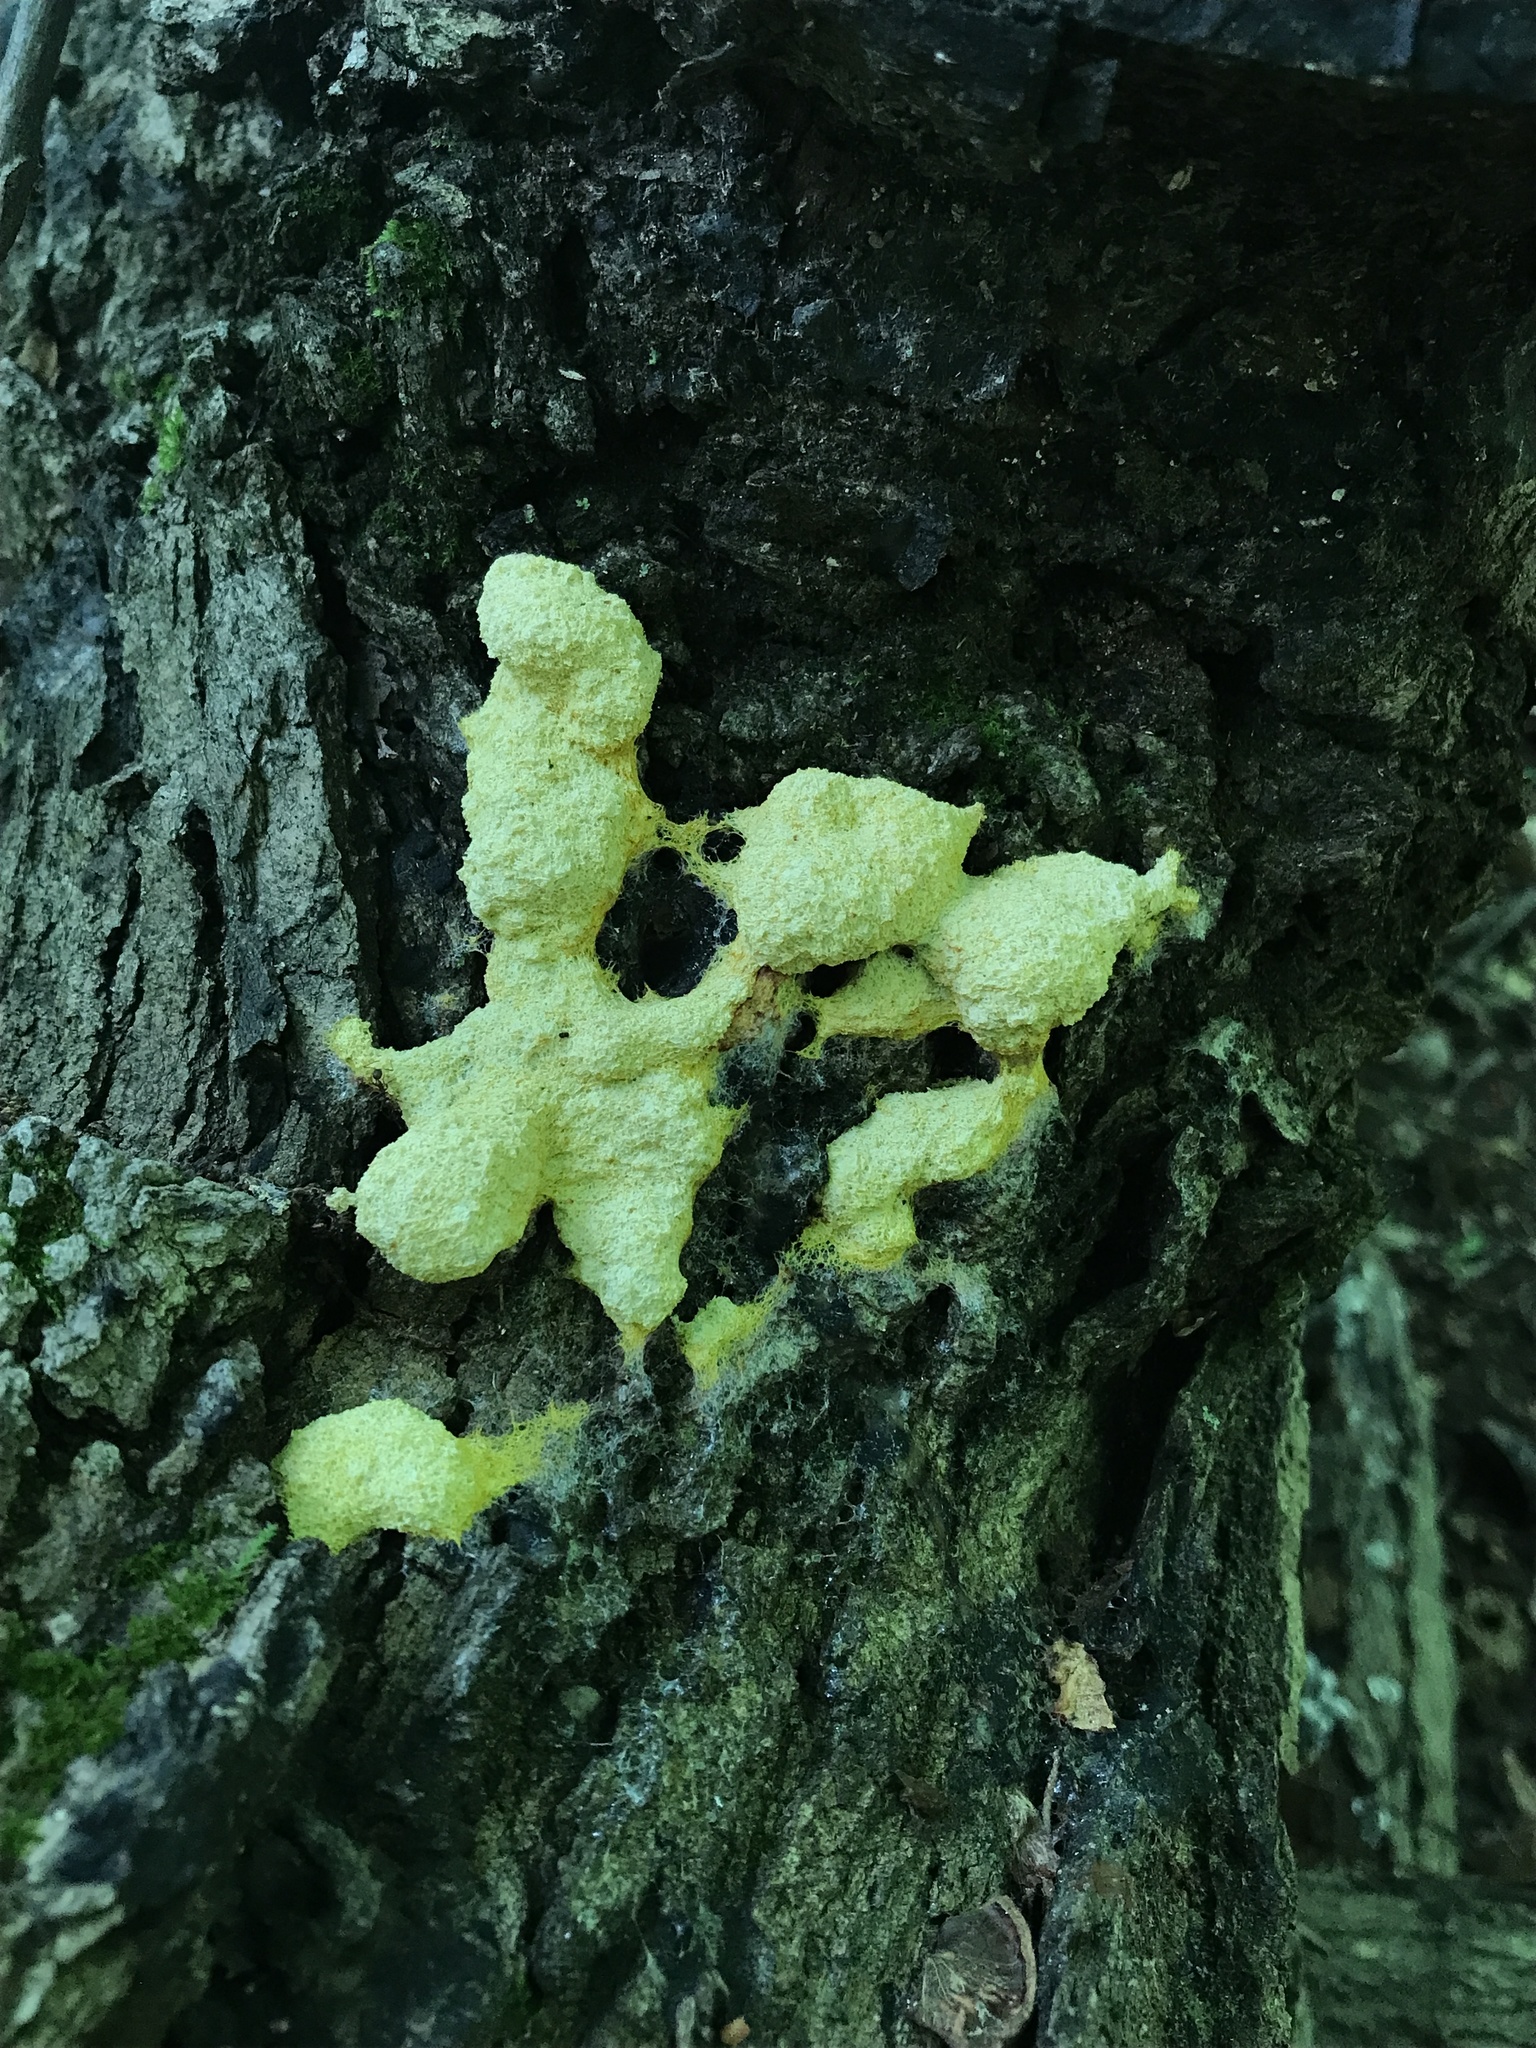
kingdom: Protozoa
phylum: Mycetozoa
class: Myxomycetes
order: Physarales
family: Physaraceae
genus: Fuligo
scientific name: Fuligo septica
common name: Dog vomit slime mold
